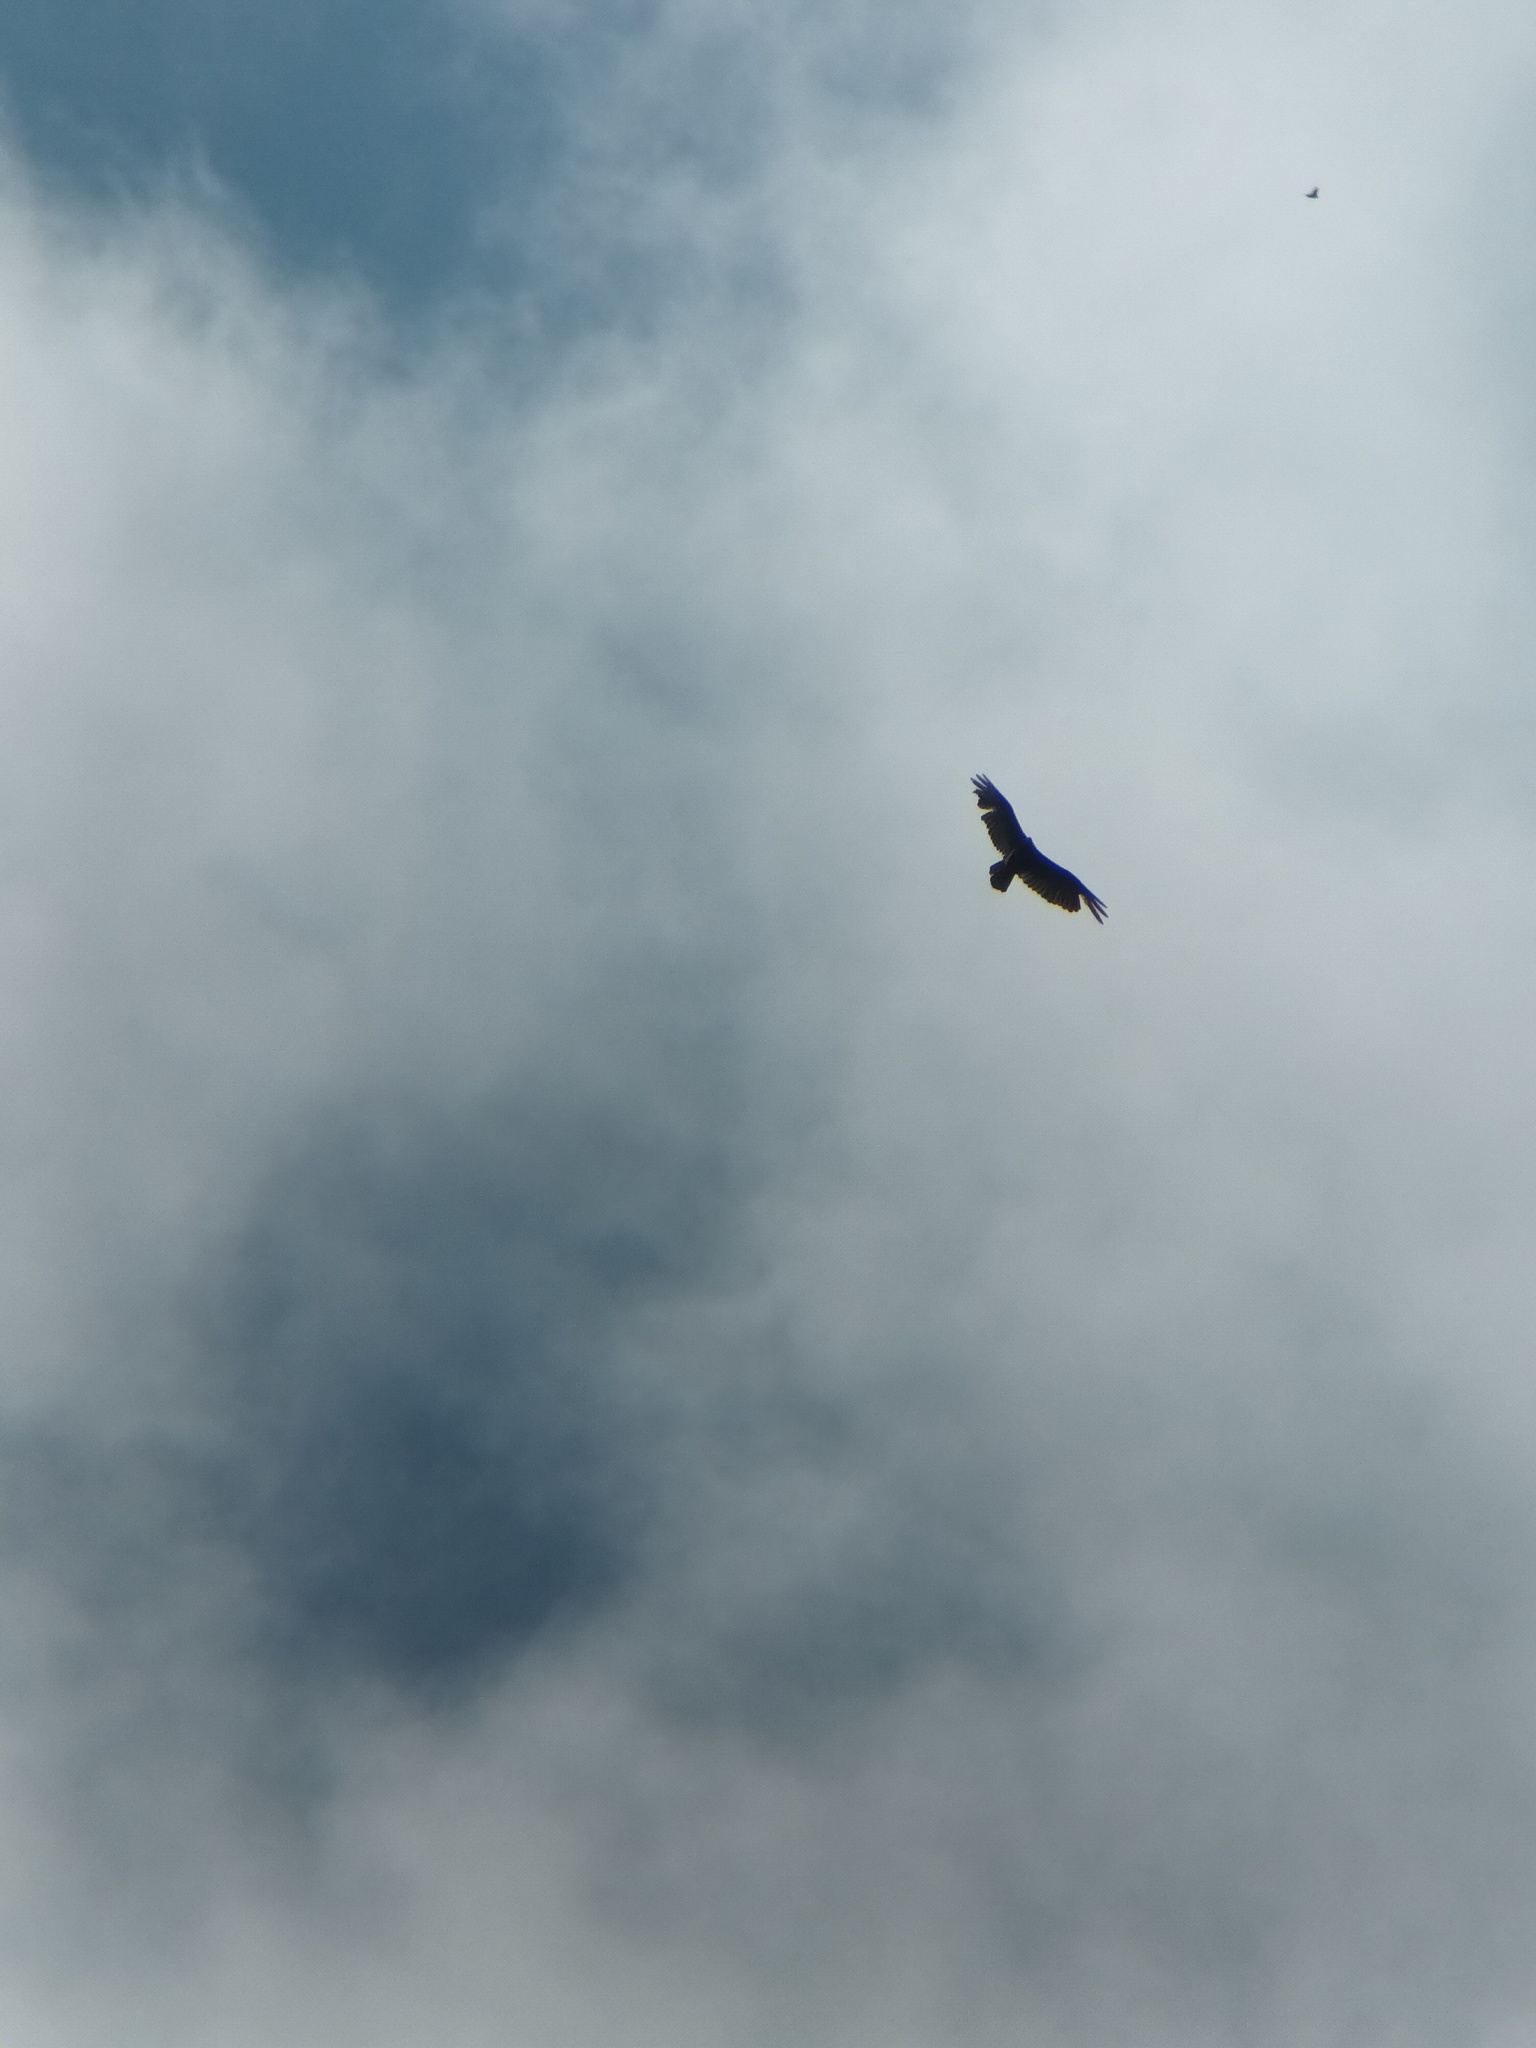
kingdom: Animalia
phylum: Chordata
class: Aves
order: Accipitriformes
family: Cathartidae
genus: Cathartes
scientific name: Cathartes aura
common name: Turkey vulture
